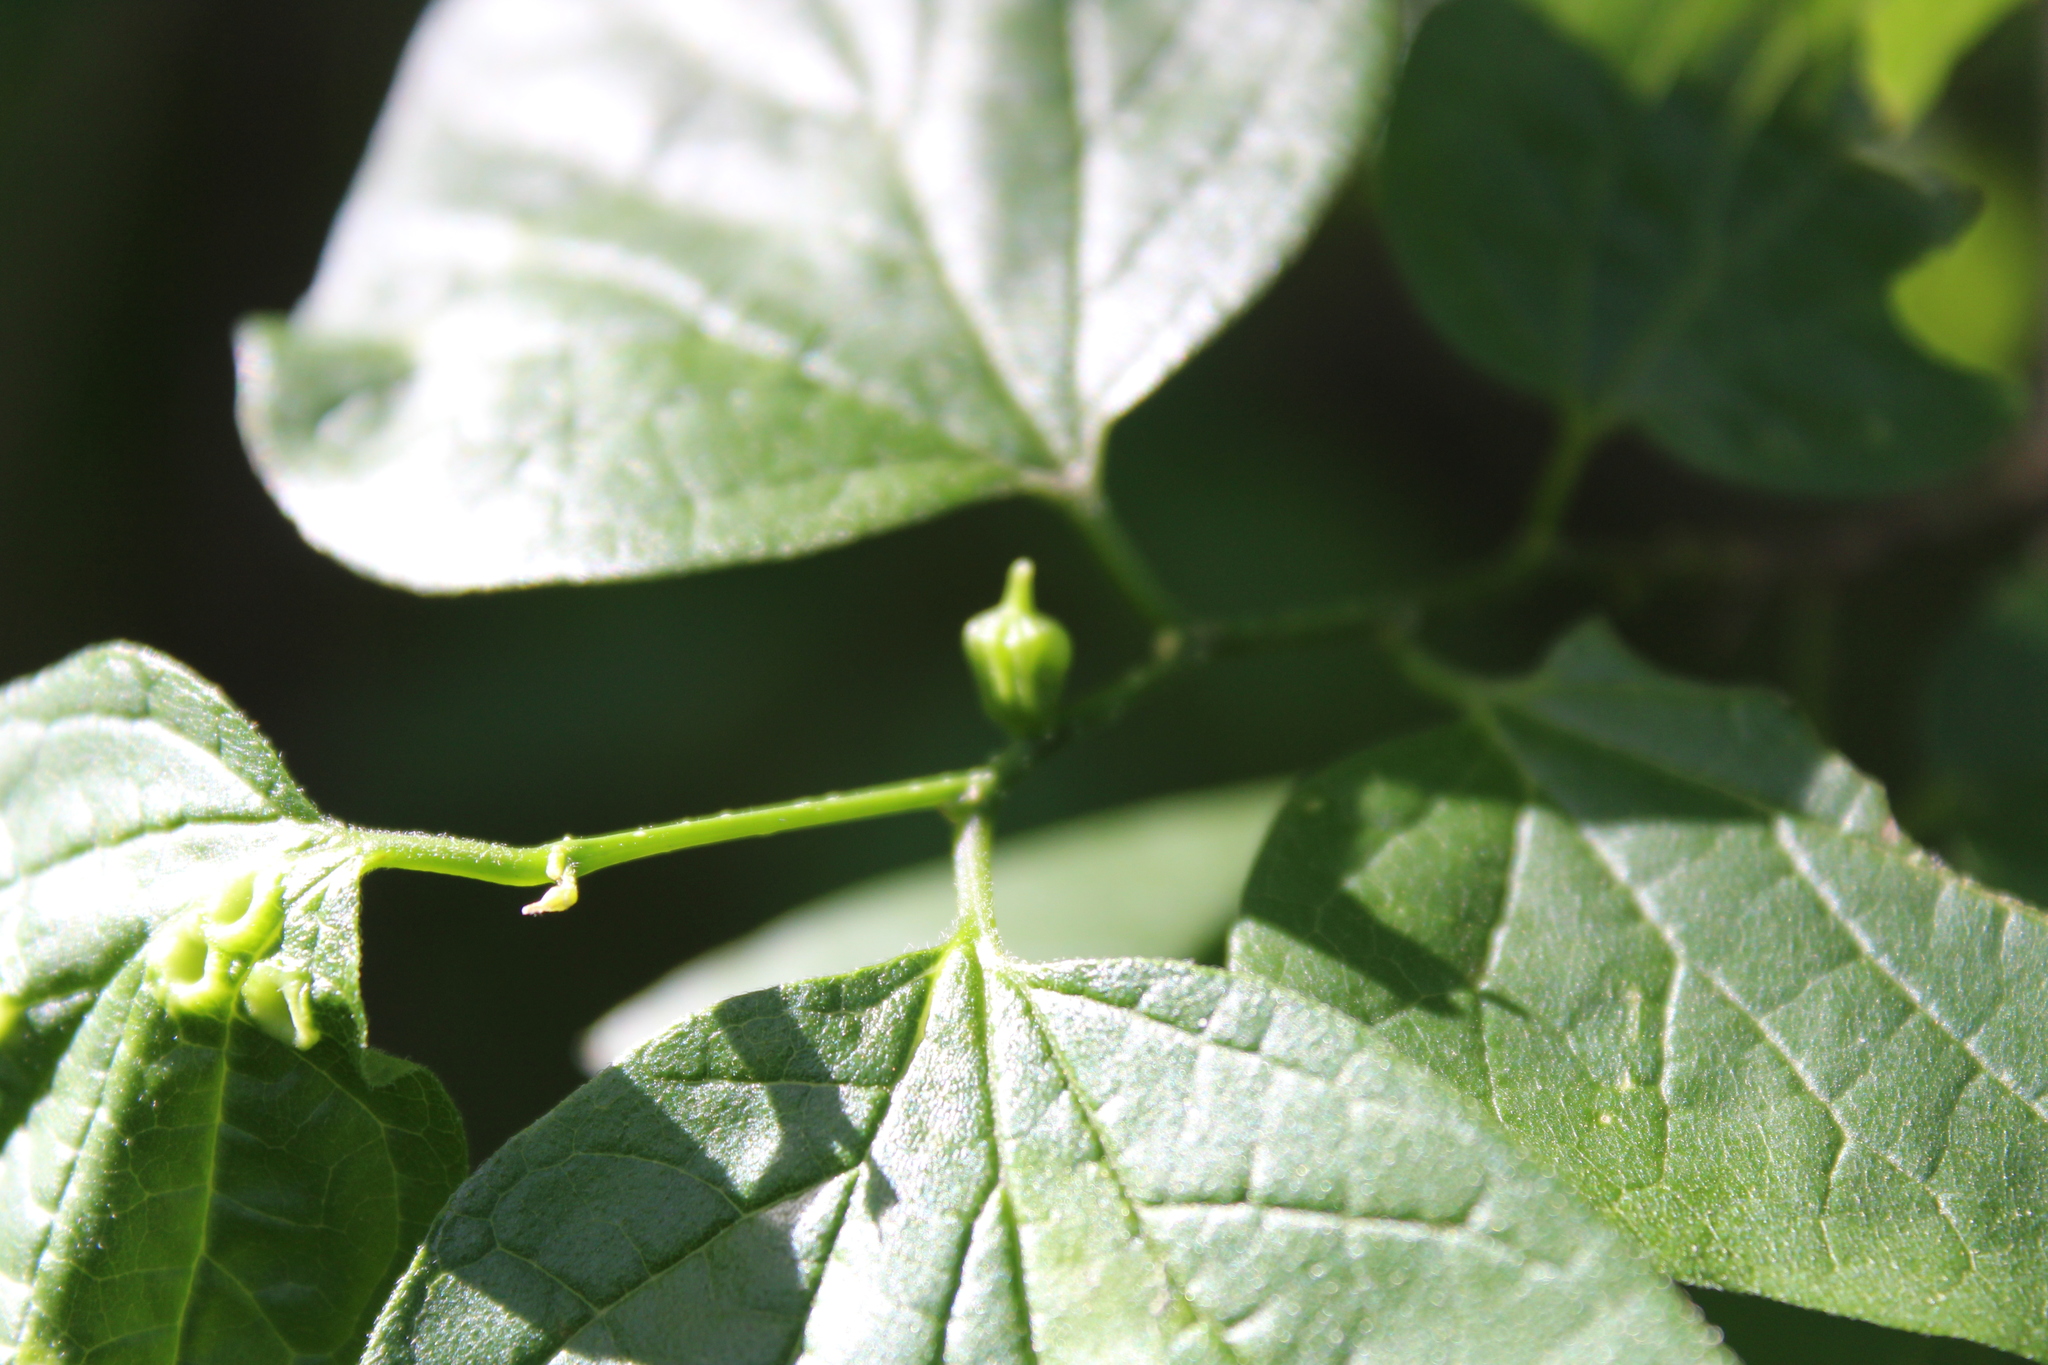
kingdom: Animalia
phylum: Arthropoda
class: Insecta
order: Diptera
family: Cecidomyiidae
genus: Celticecis
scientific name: Celticecis ramicola
